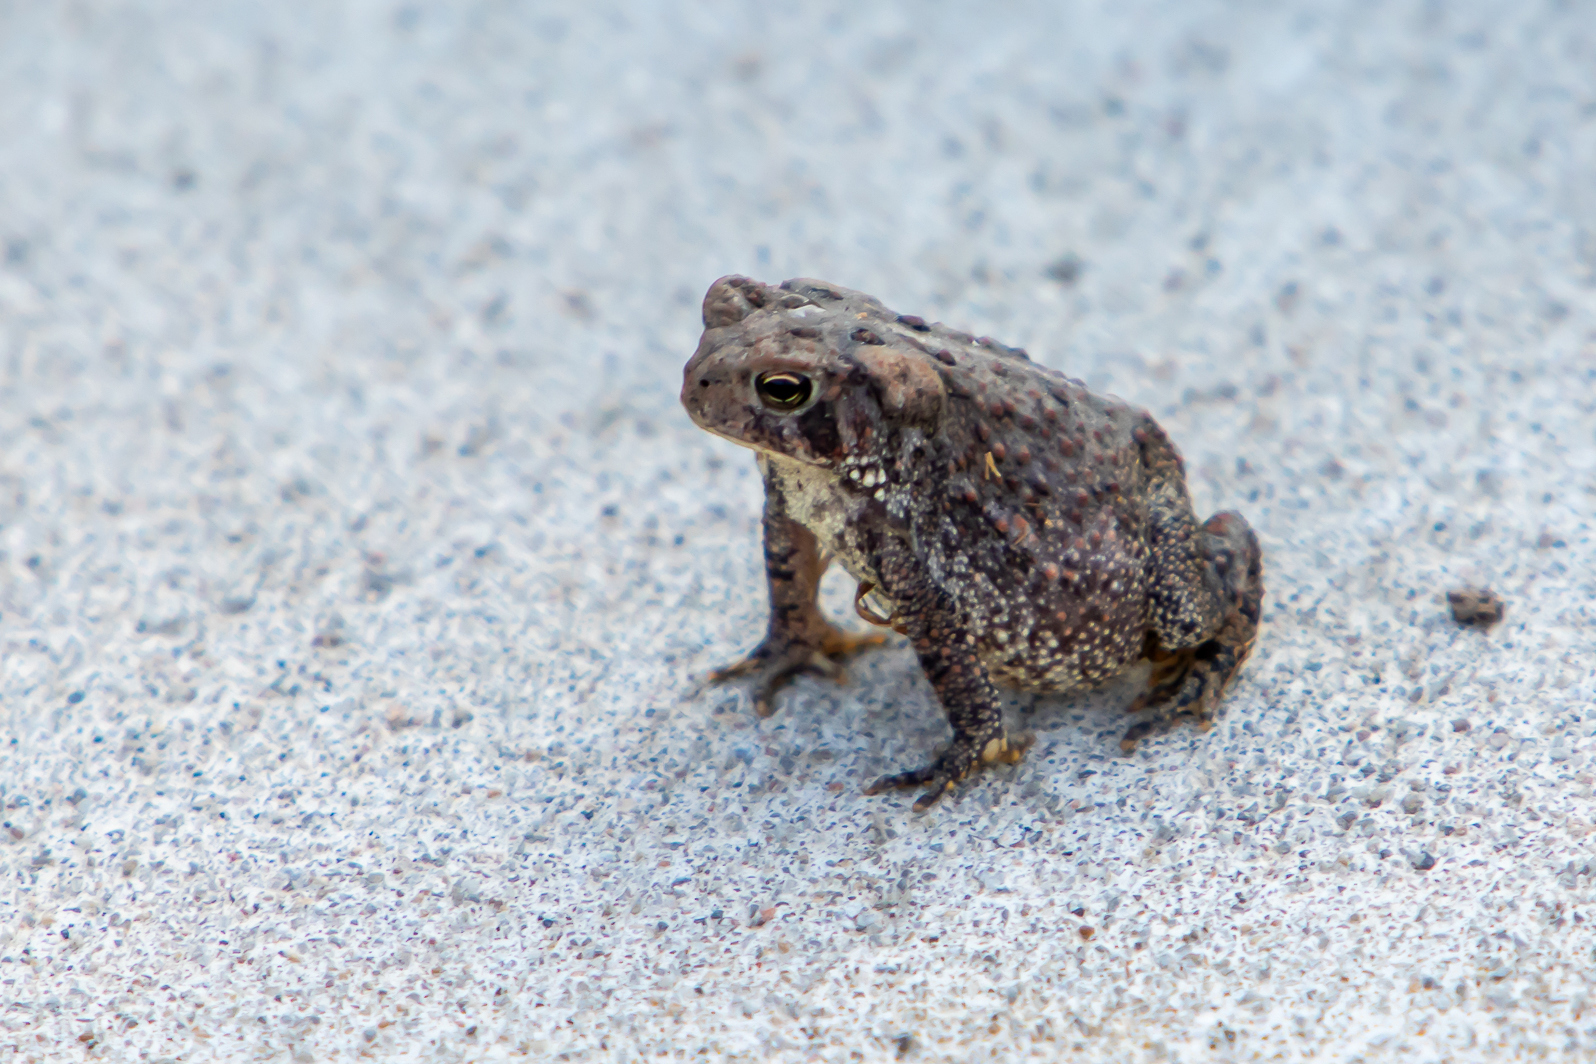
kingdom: Animalia
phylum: Chordata
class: Amphibia
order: Anura
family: Bufonidae
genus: Anaxyrus
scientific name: Anaxyrus americanus
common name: American toad
